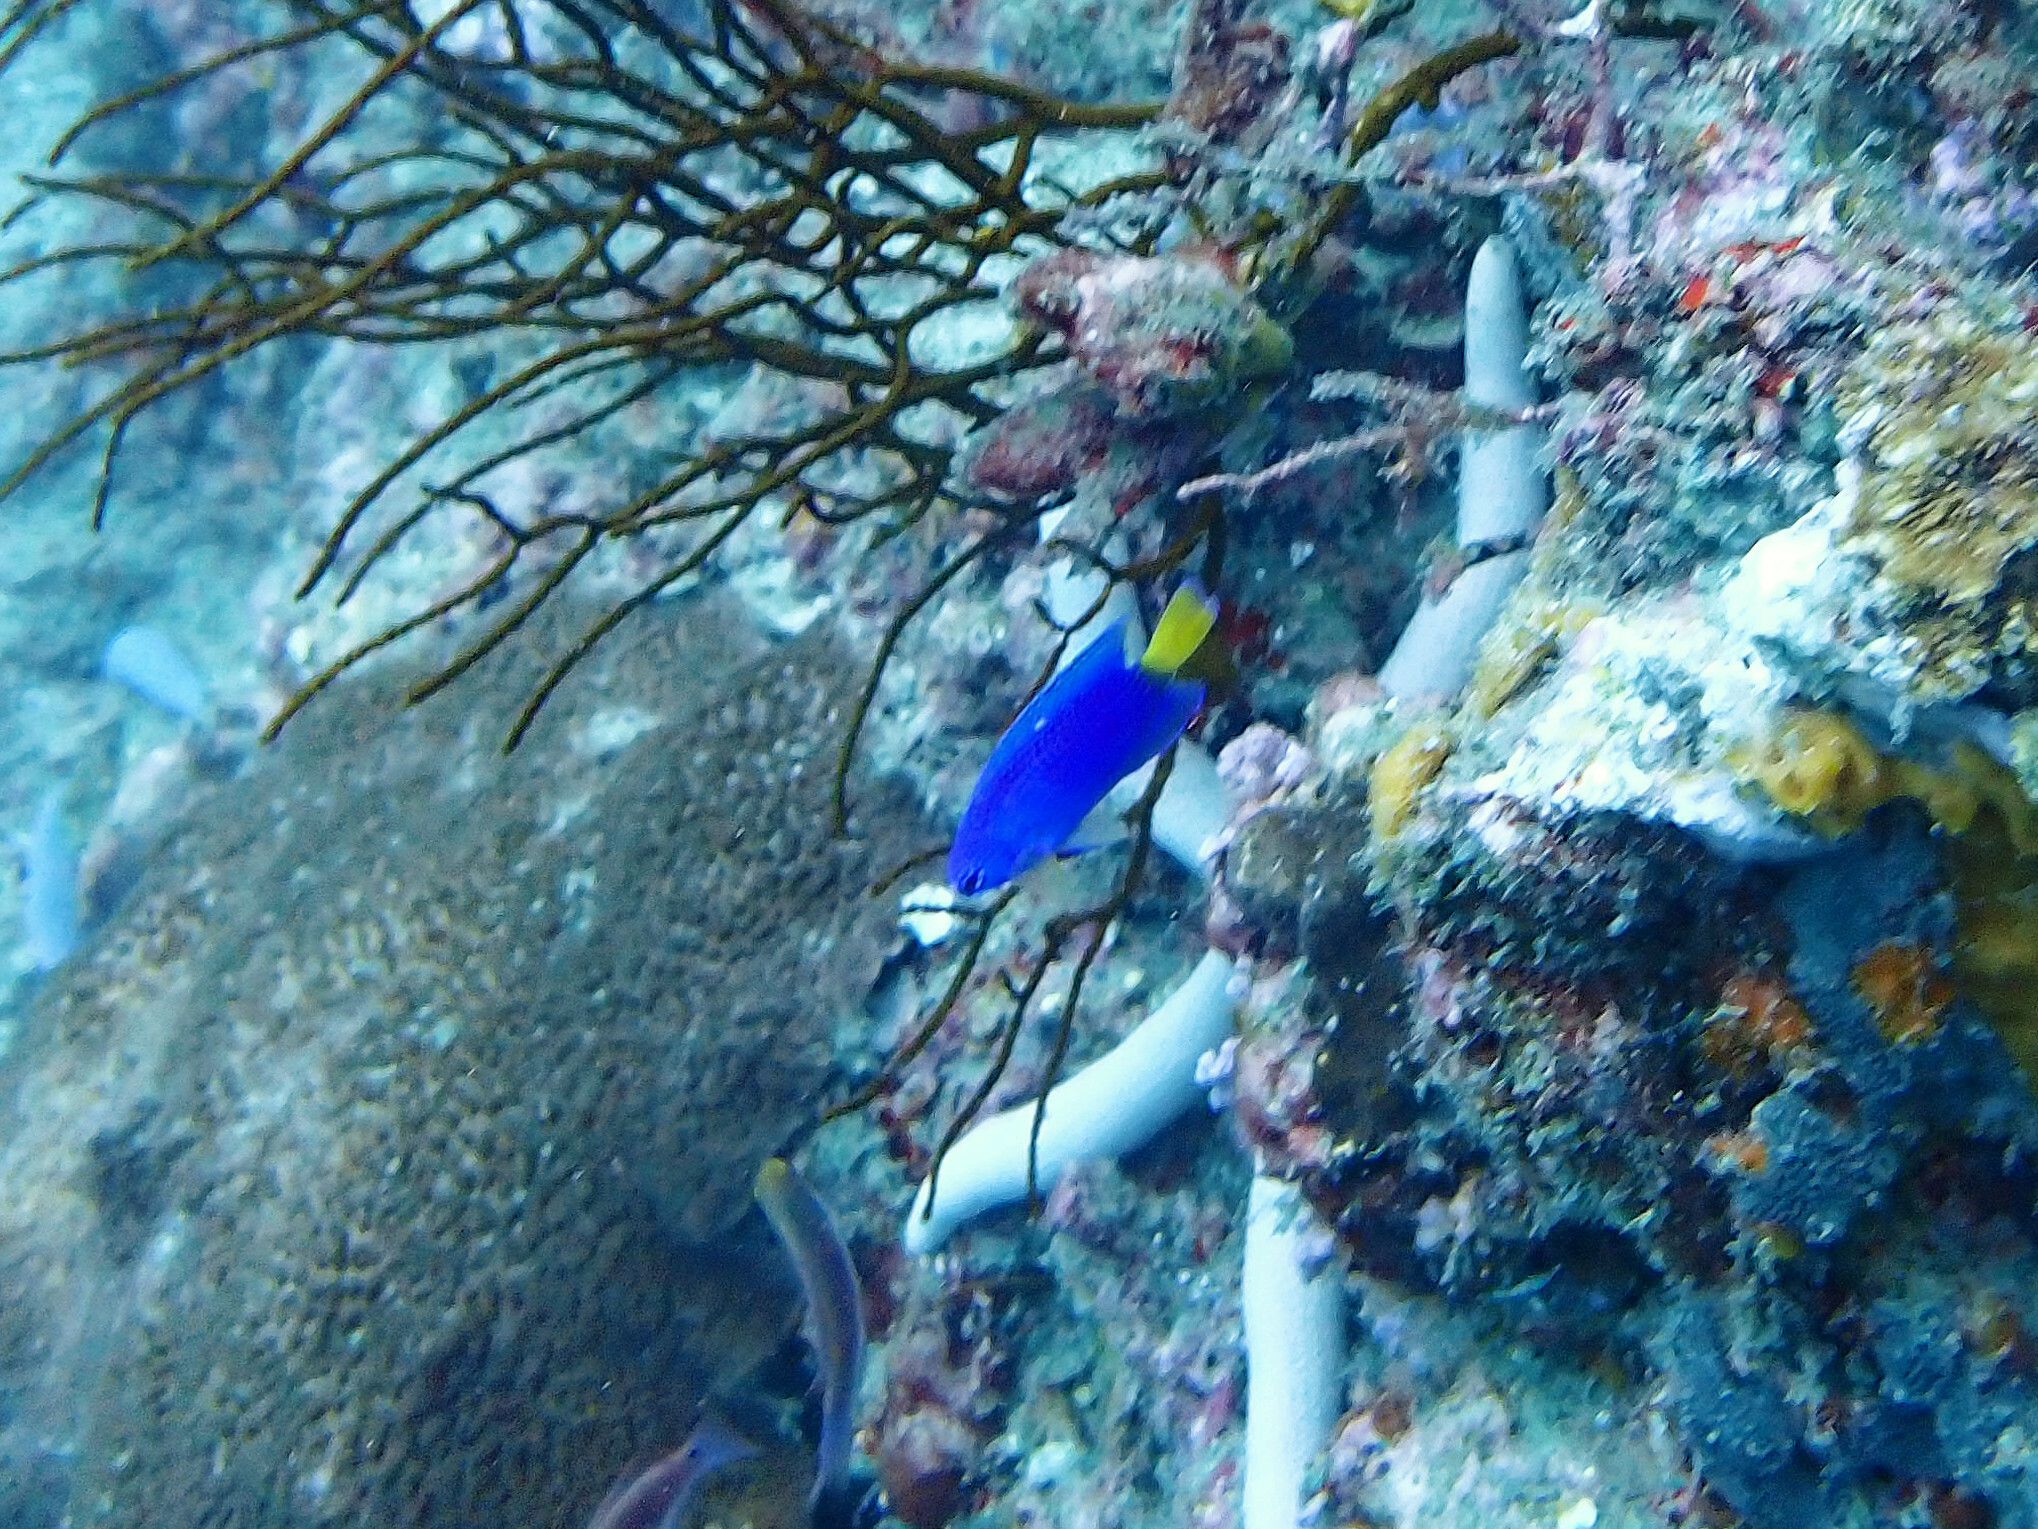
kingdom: Animalia
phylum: Chordata
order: Perciformes
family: Pomacentridae
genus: Pomacentrus
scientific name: Pomacentrus similis
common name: Similar damsel
